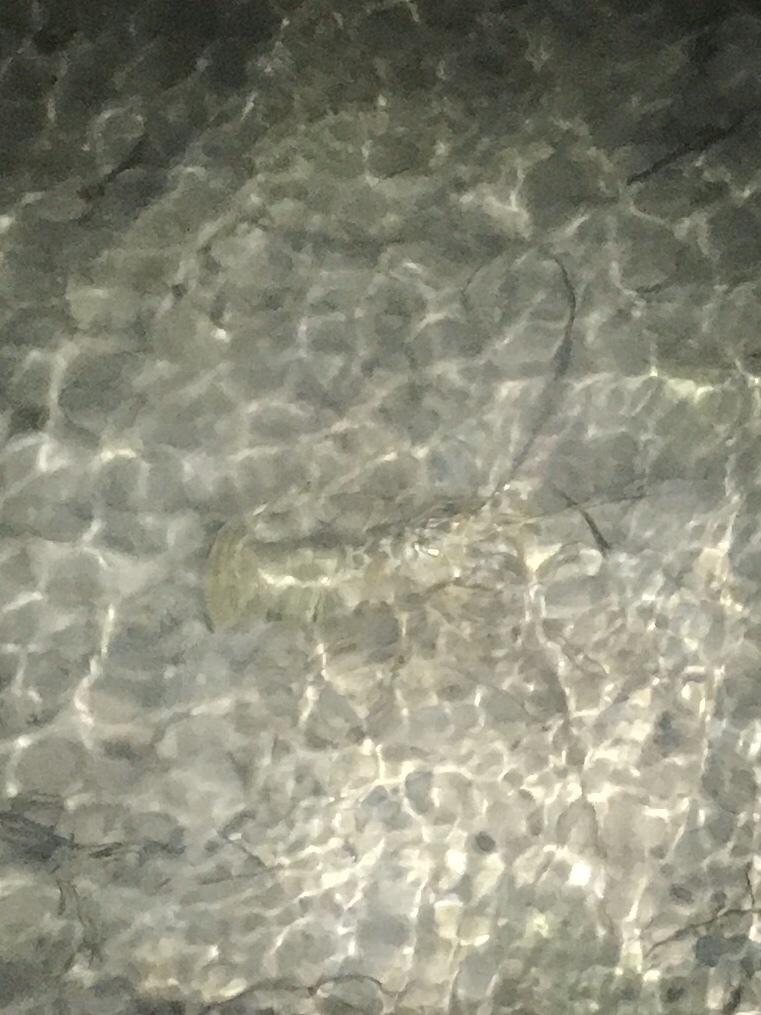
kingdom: Animalia
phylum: Arthropoda
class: Malacostraca
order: Decapoda
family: Palinuridae
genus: Panulirus
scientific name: Panulirus argus
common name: Caribbean spiny lobster
